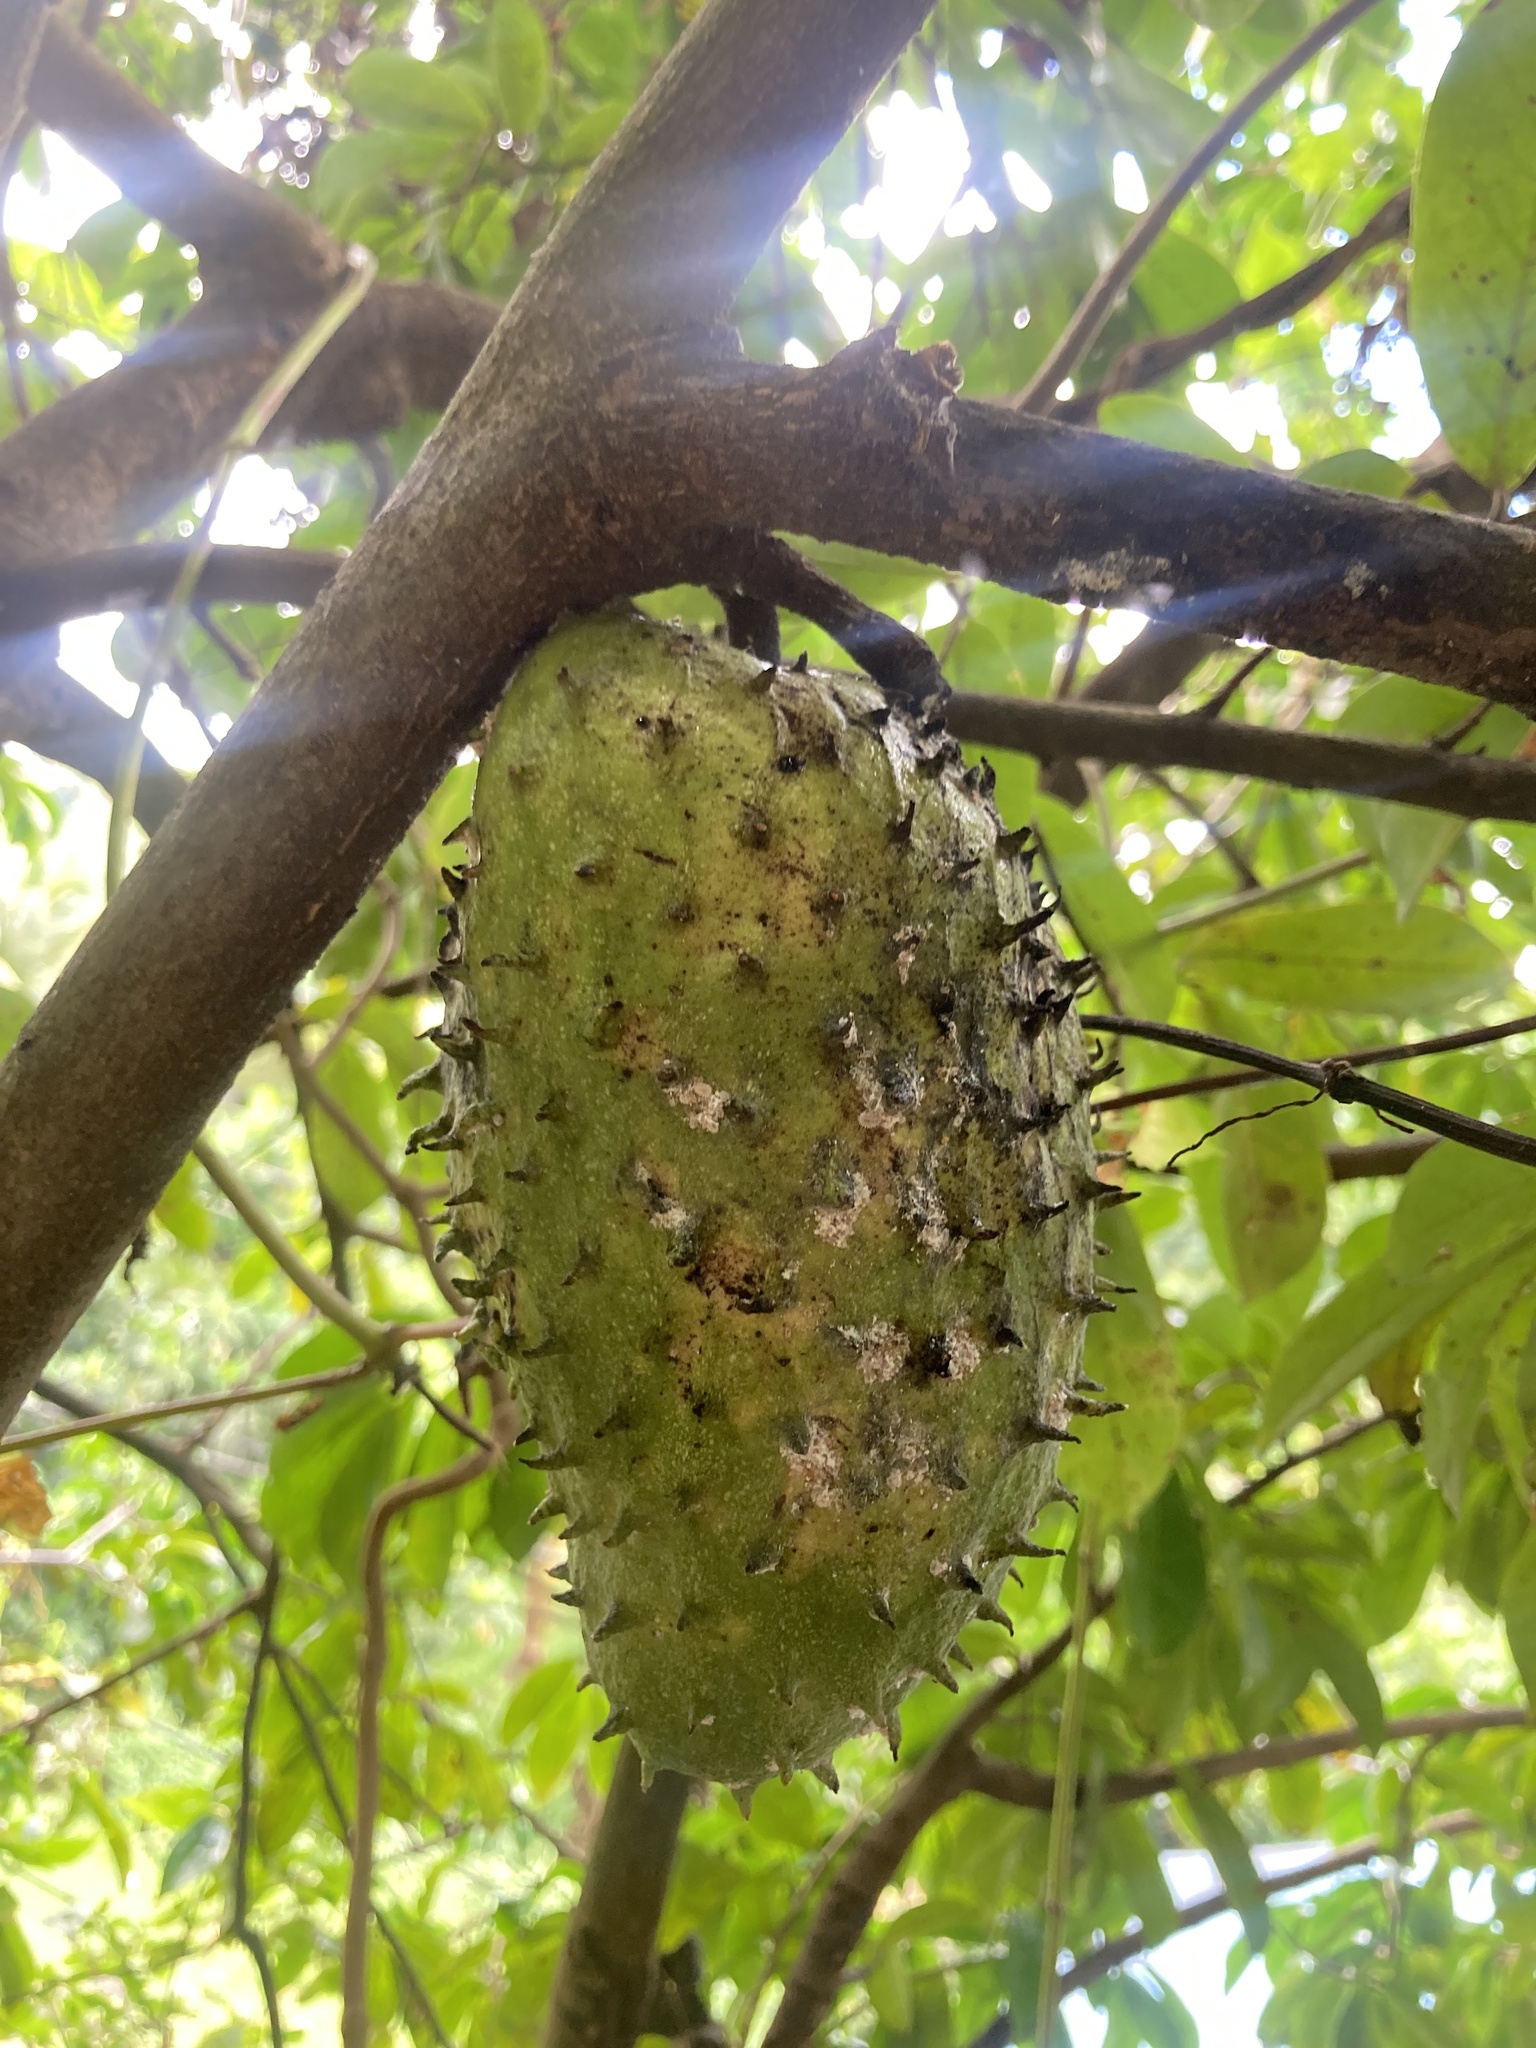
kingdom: Plantae
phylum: Tracheophyta
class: Magnoliopsida
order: Magnoliales
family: Annonaceae
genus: Annona
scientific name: Annona muricata
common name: Soursop
